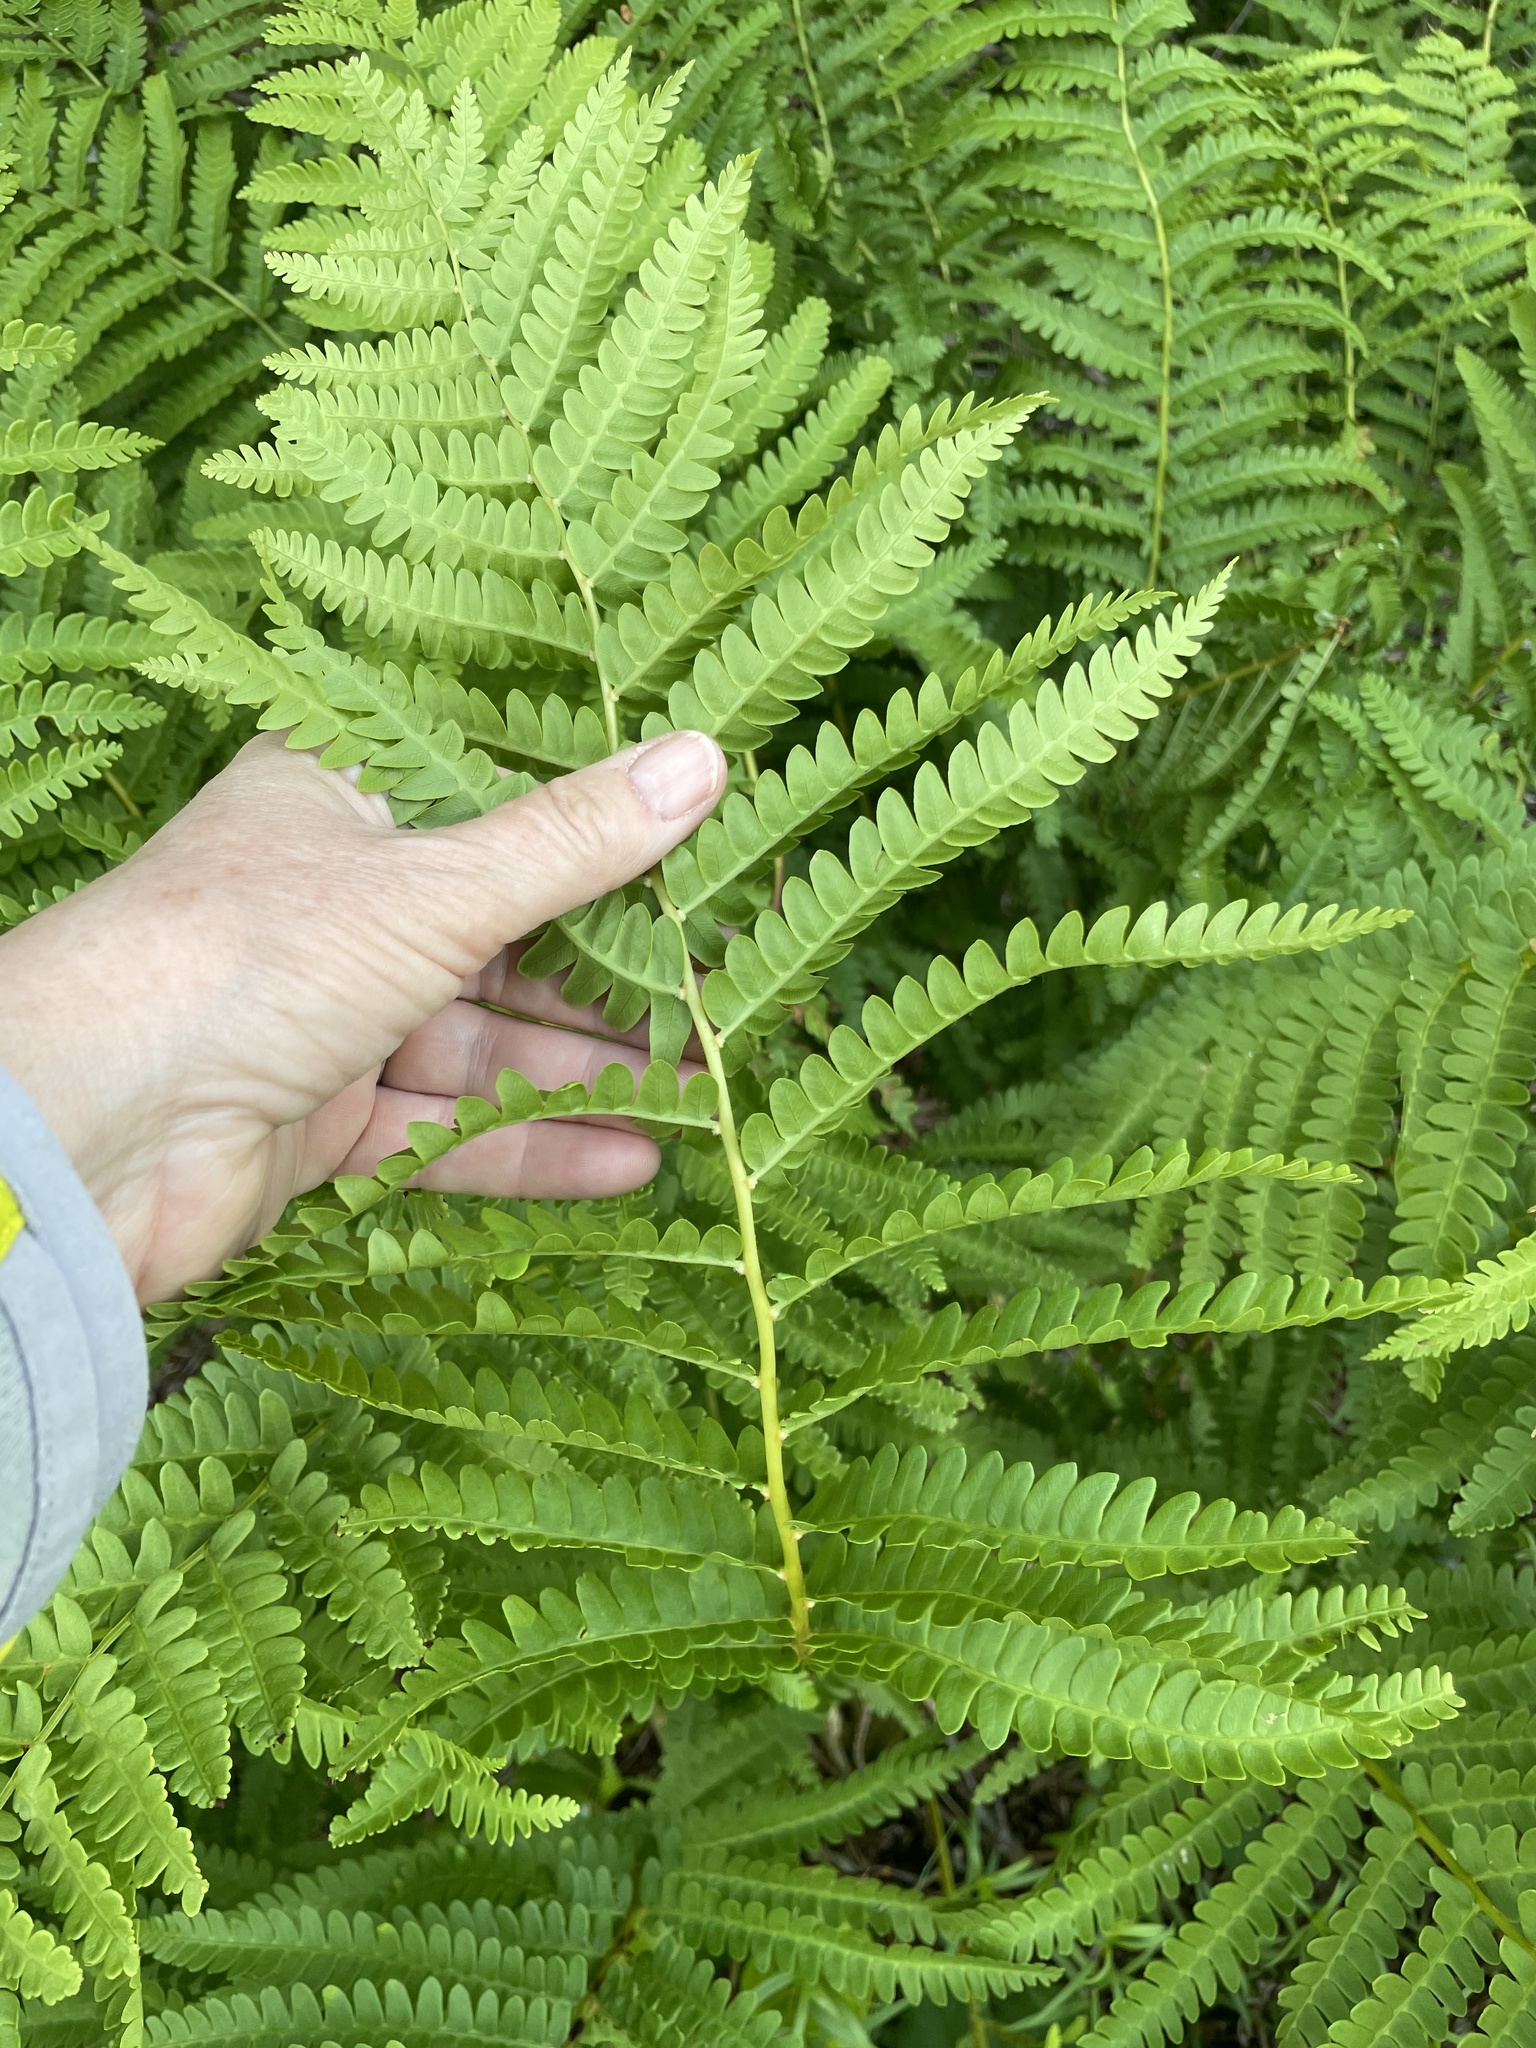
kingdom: Plantae
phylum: Tracheophyta
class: Polypodiopsida
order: Osmundales
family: Osmundaceae
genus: Osmundastrum
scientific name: Osmundastrum cinnamomeum
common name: Cinnamon fern
